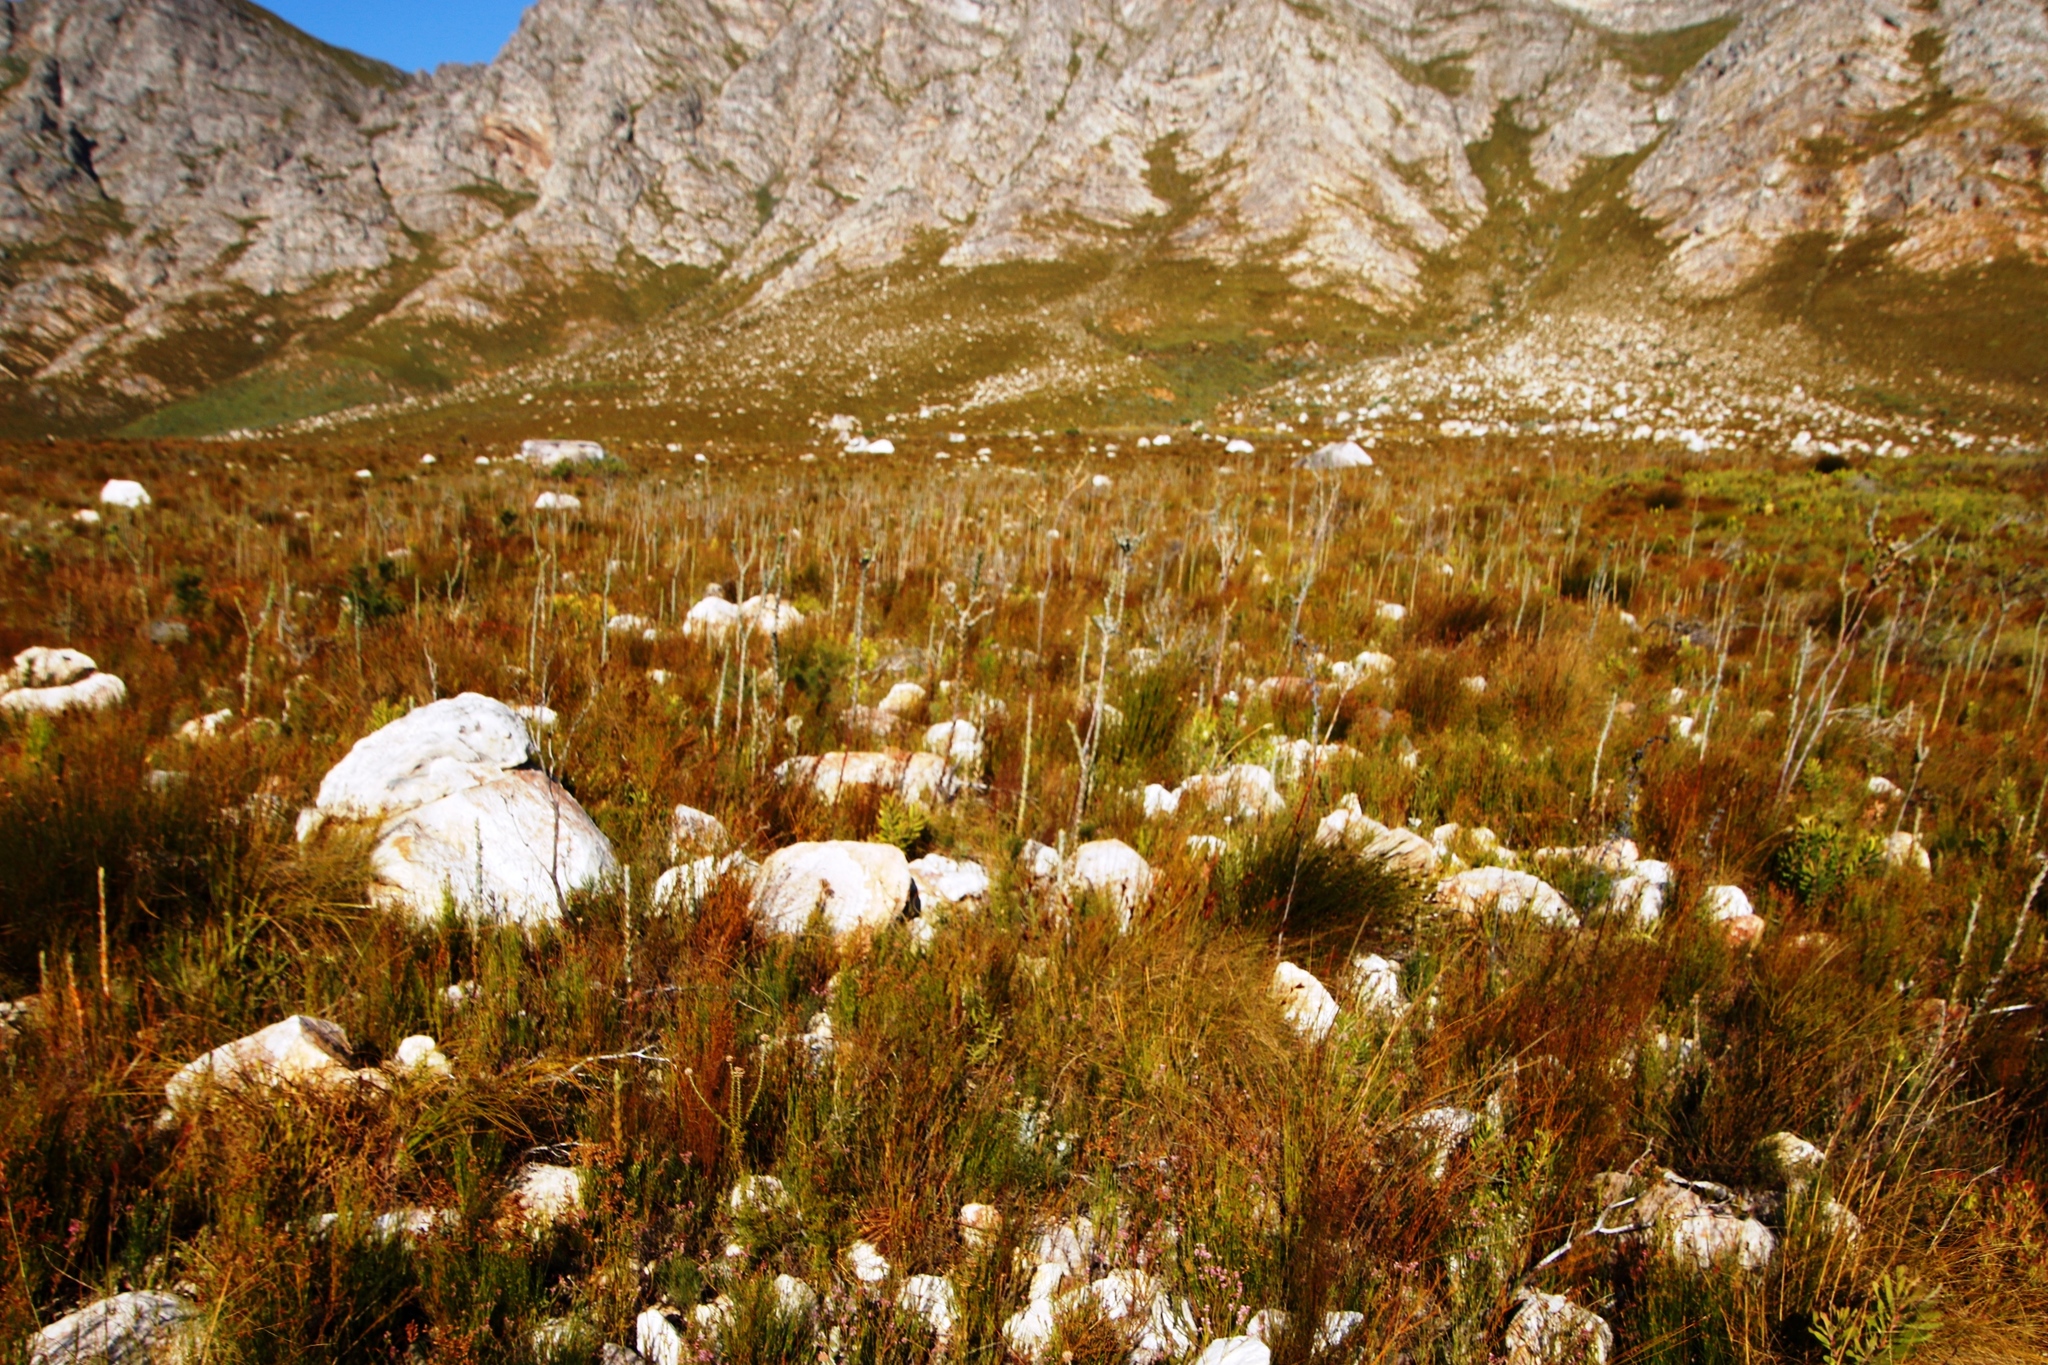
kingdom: Plantae
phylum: Tracheophyta
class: Magnoliopsida
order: Santalales
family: Thesiaceae
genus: Thesium
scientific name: Thesium euphorbioides
